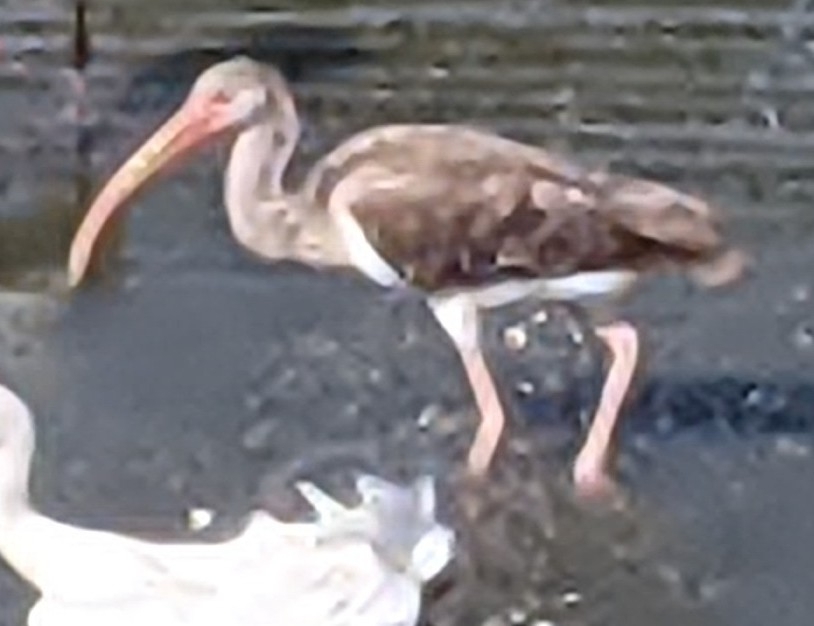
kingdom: Animalia
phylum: Chordata
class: Aves
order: Pelecaniformes
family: Threskiornithidae
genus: Eudocimus
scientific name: Eudocimus albus
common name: White ibis
